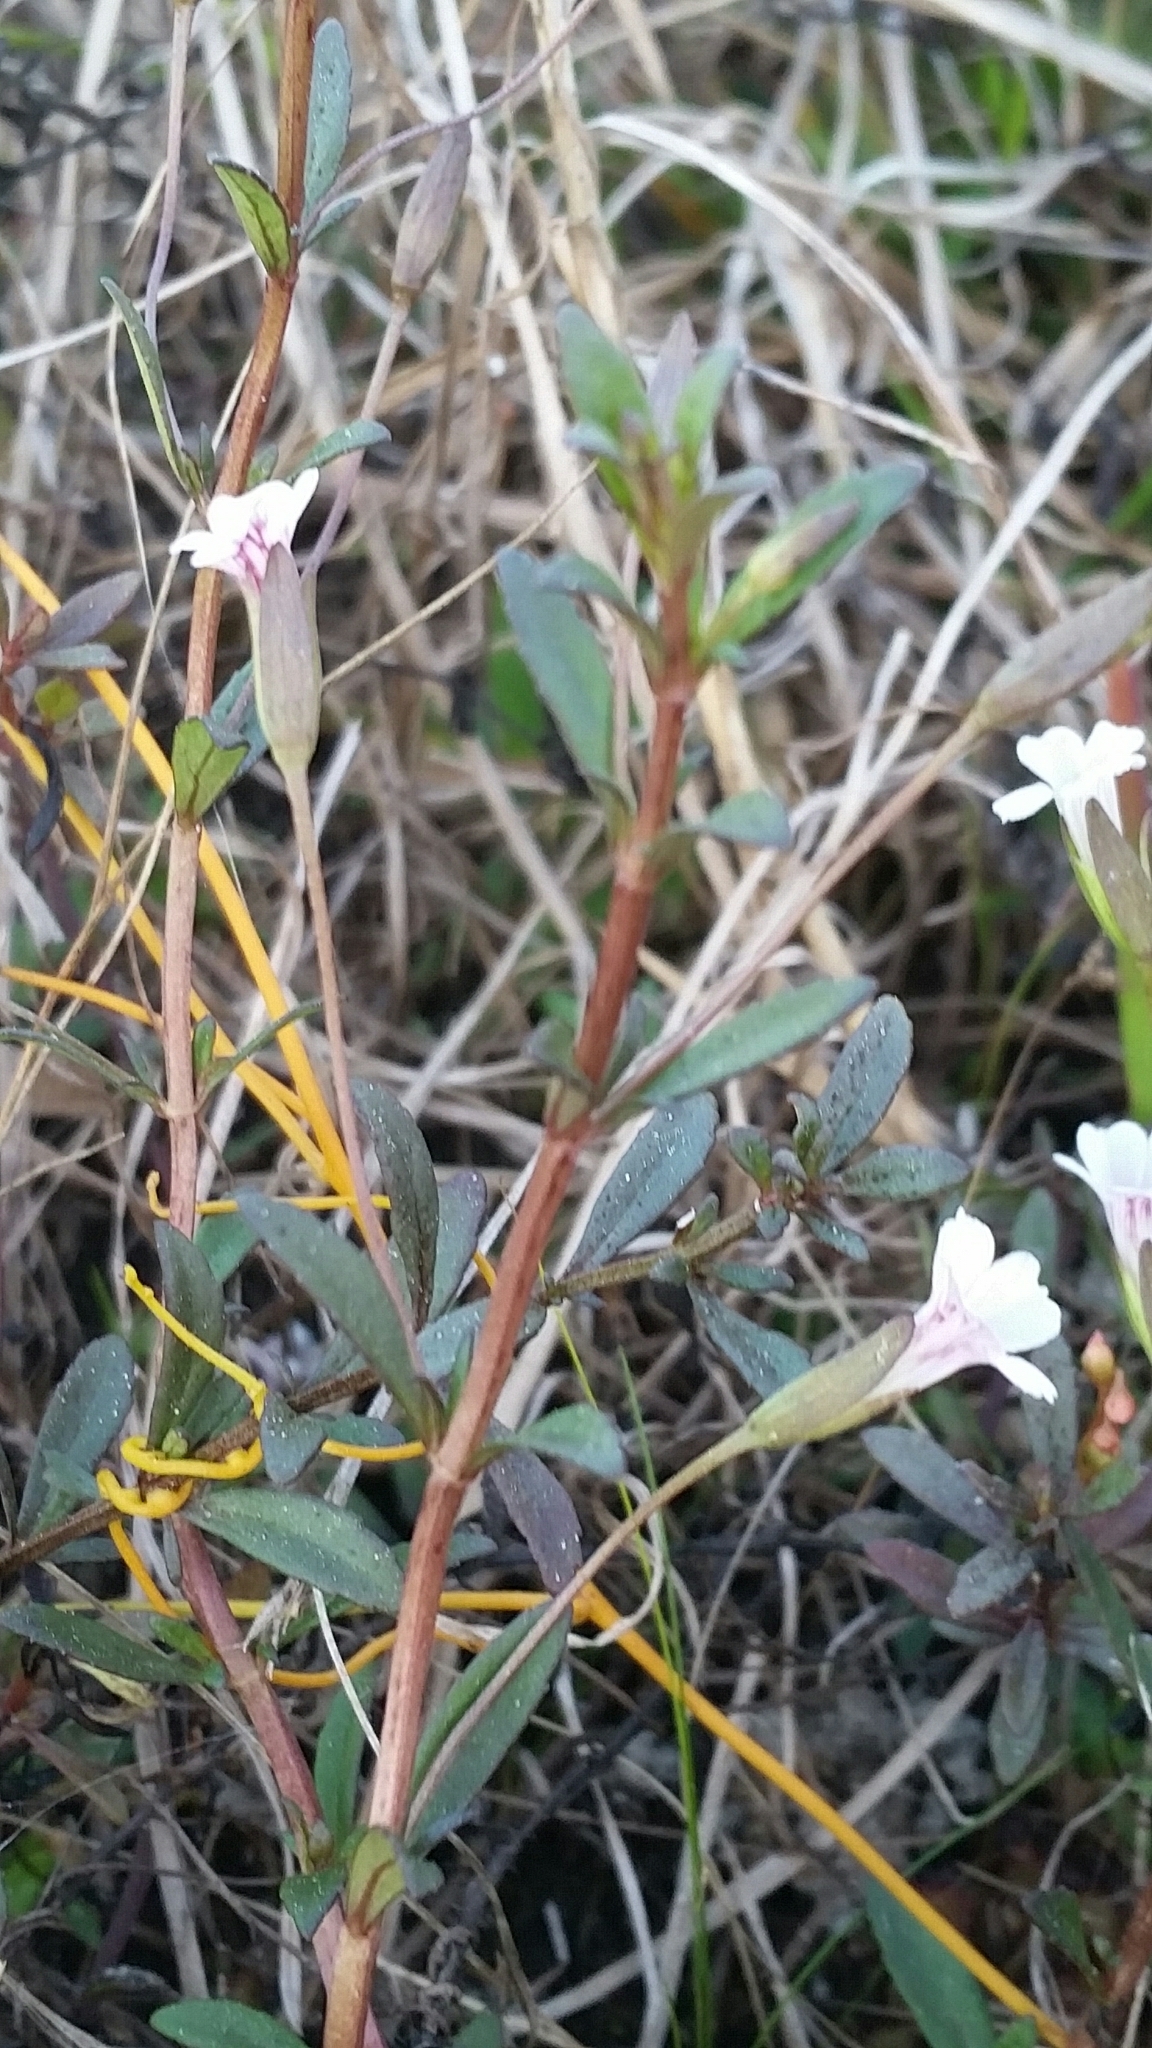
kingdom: Plantae
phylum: Tracheophyta
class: Magnoliopsida
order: Lamiales
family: Plantaginaceae
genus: Mecardonia
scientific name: Mecardonia acuminata
